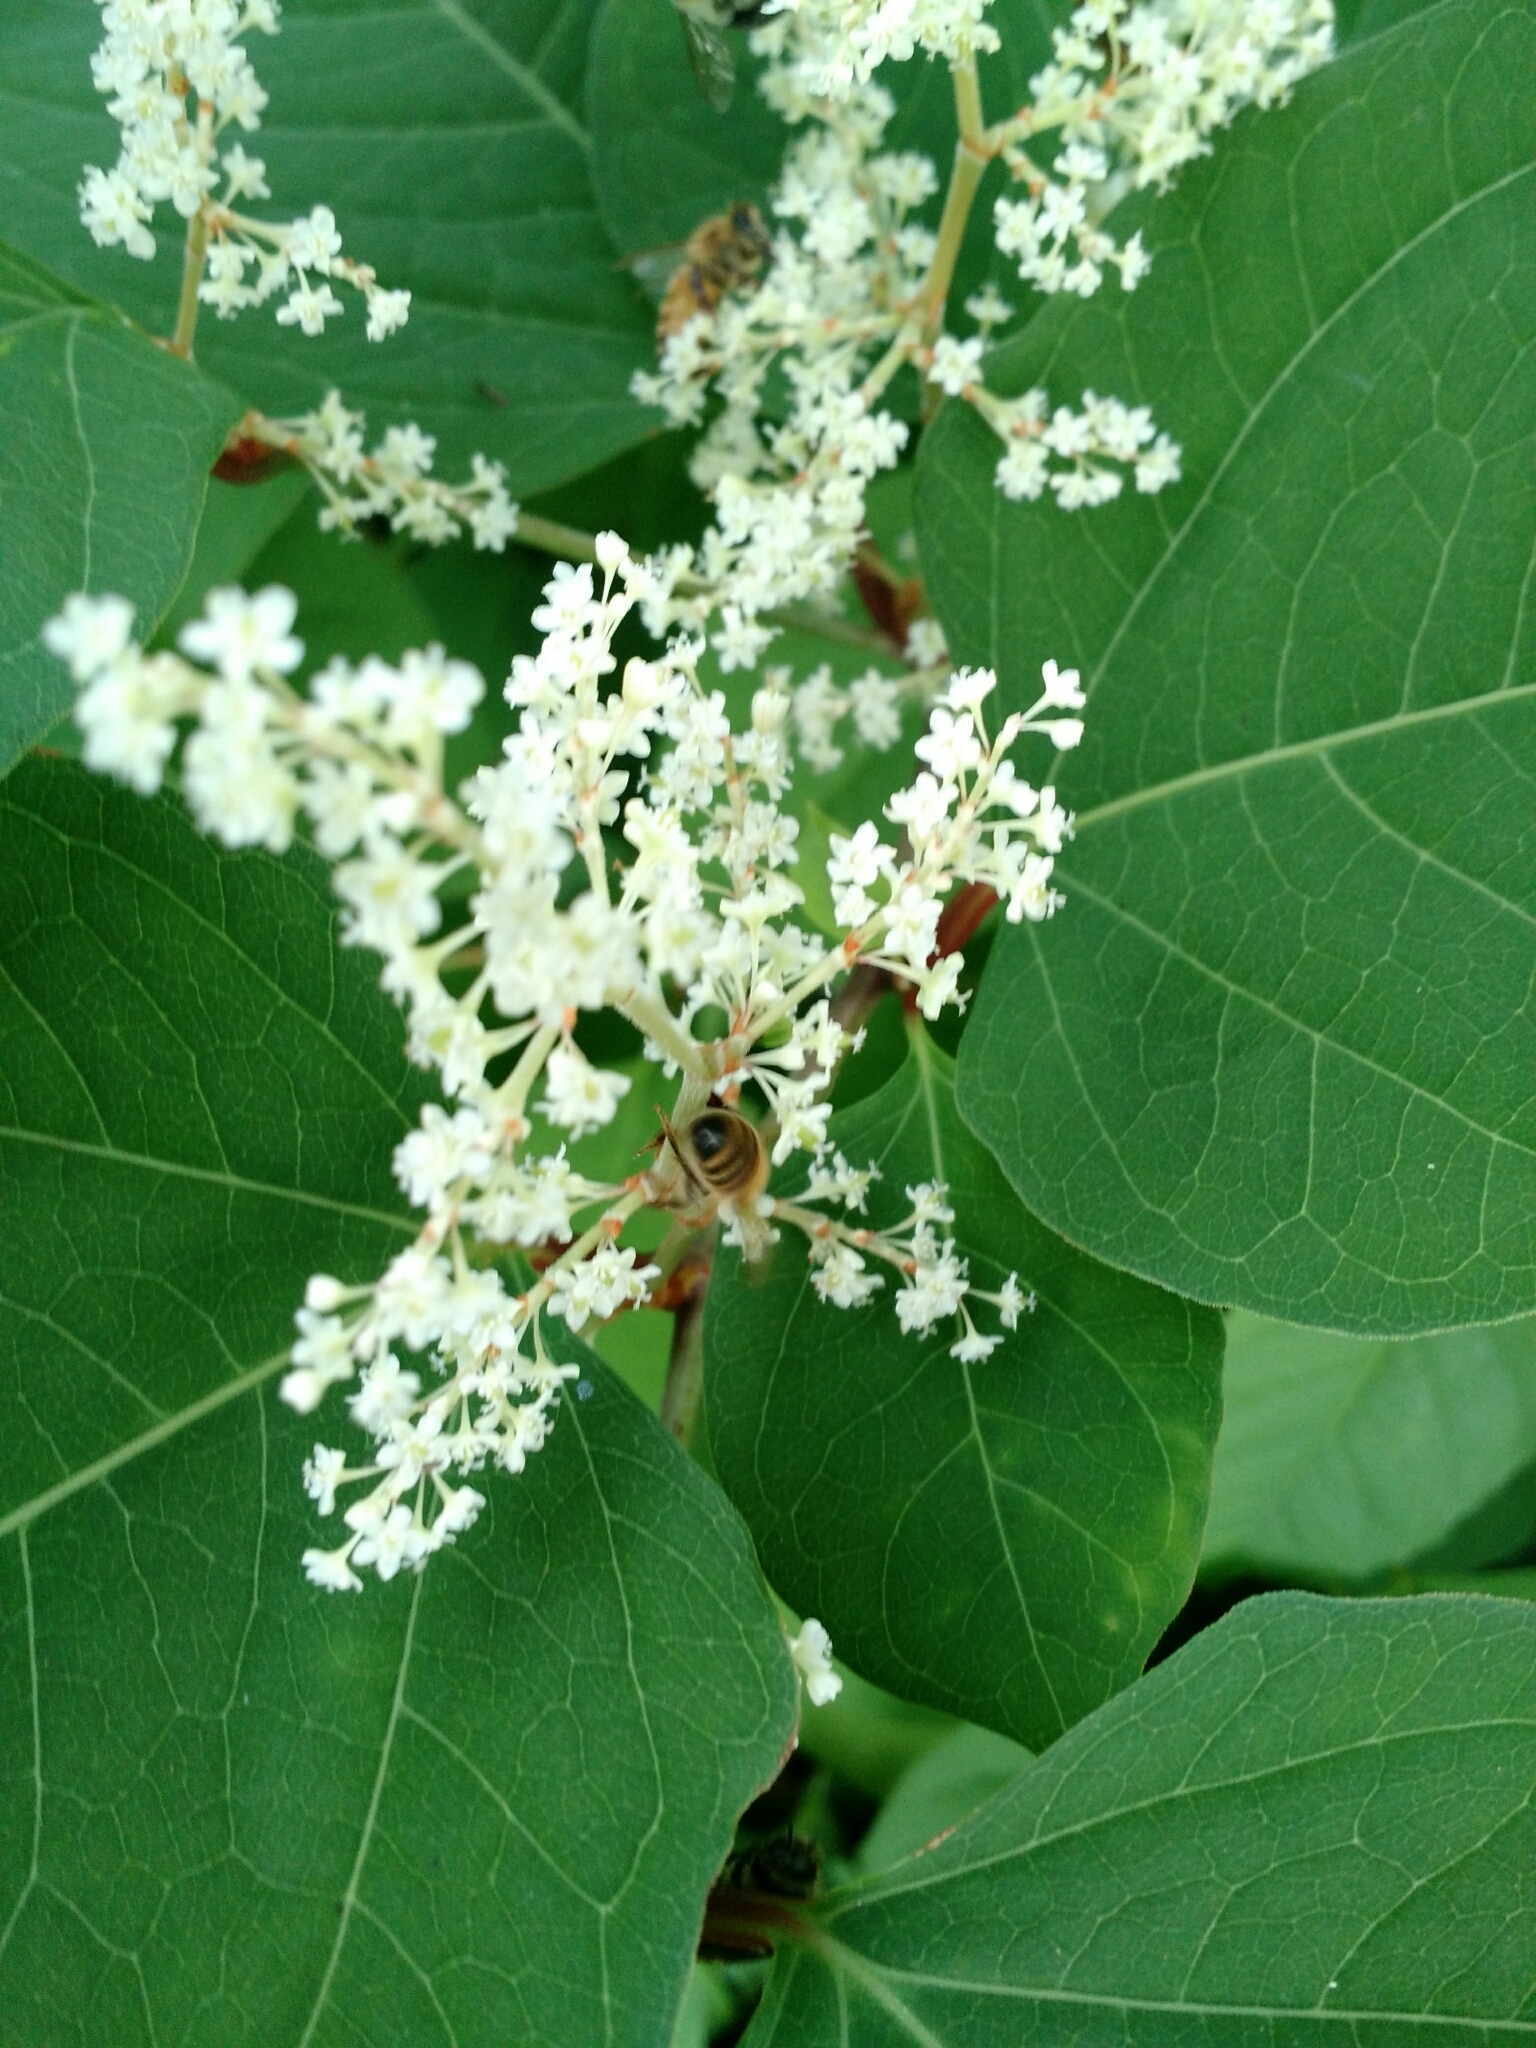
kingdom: Plantae
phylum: Tracheophyta
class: Magnoliopsida
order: Caryophyllales
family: Polygonaceae
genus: Reynoutria
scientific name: Reynoutria japonica
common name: Japanese knotweed
